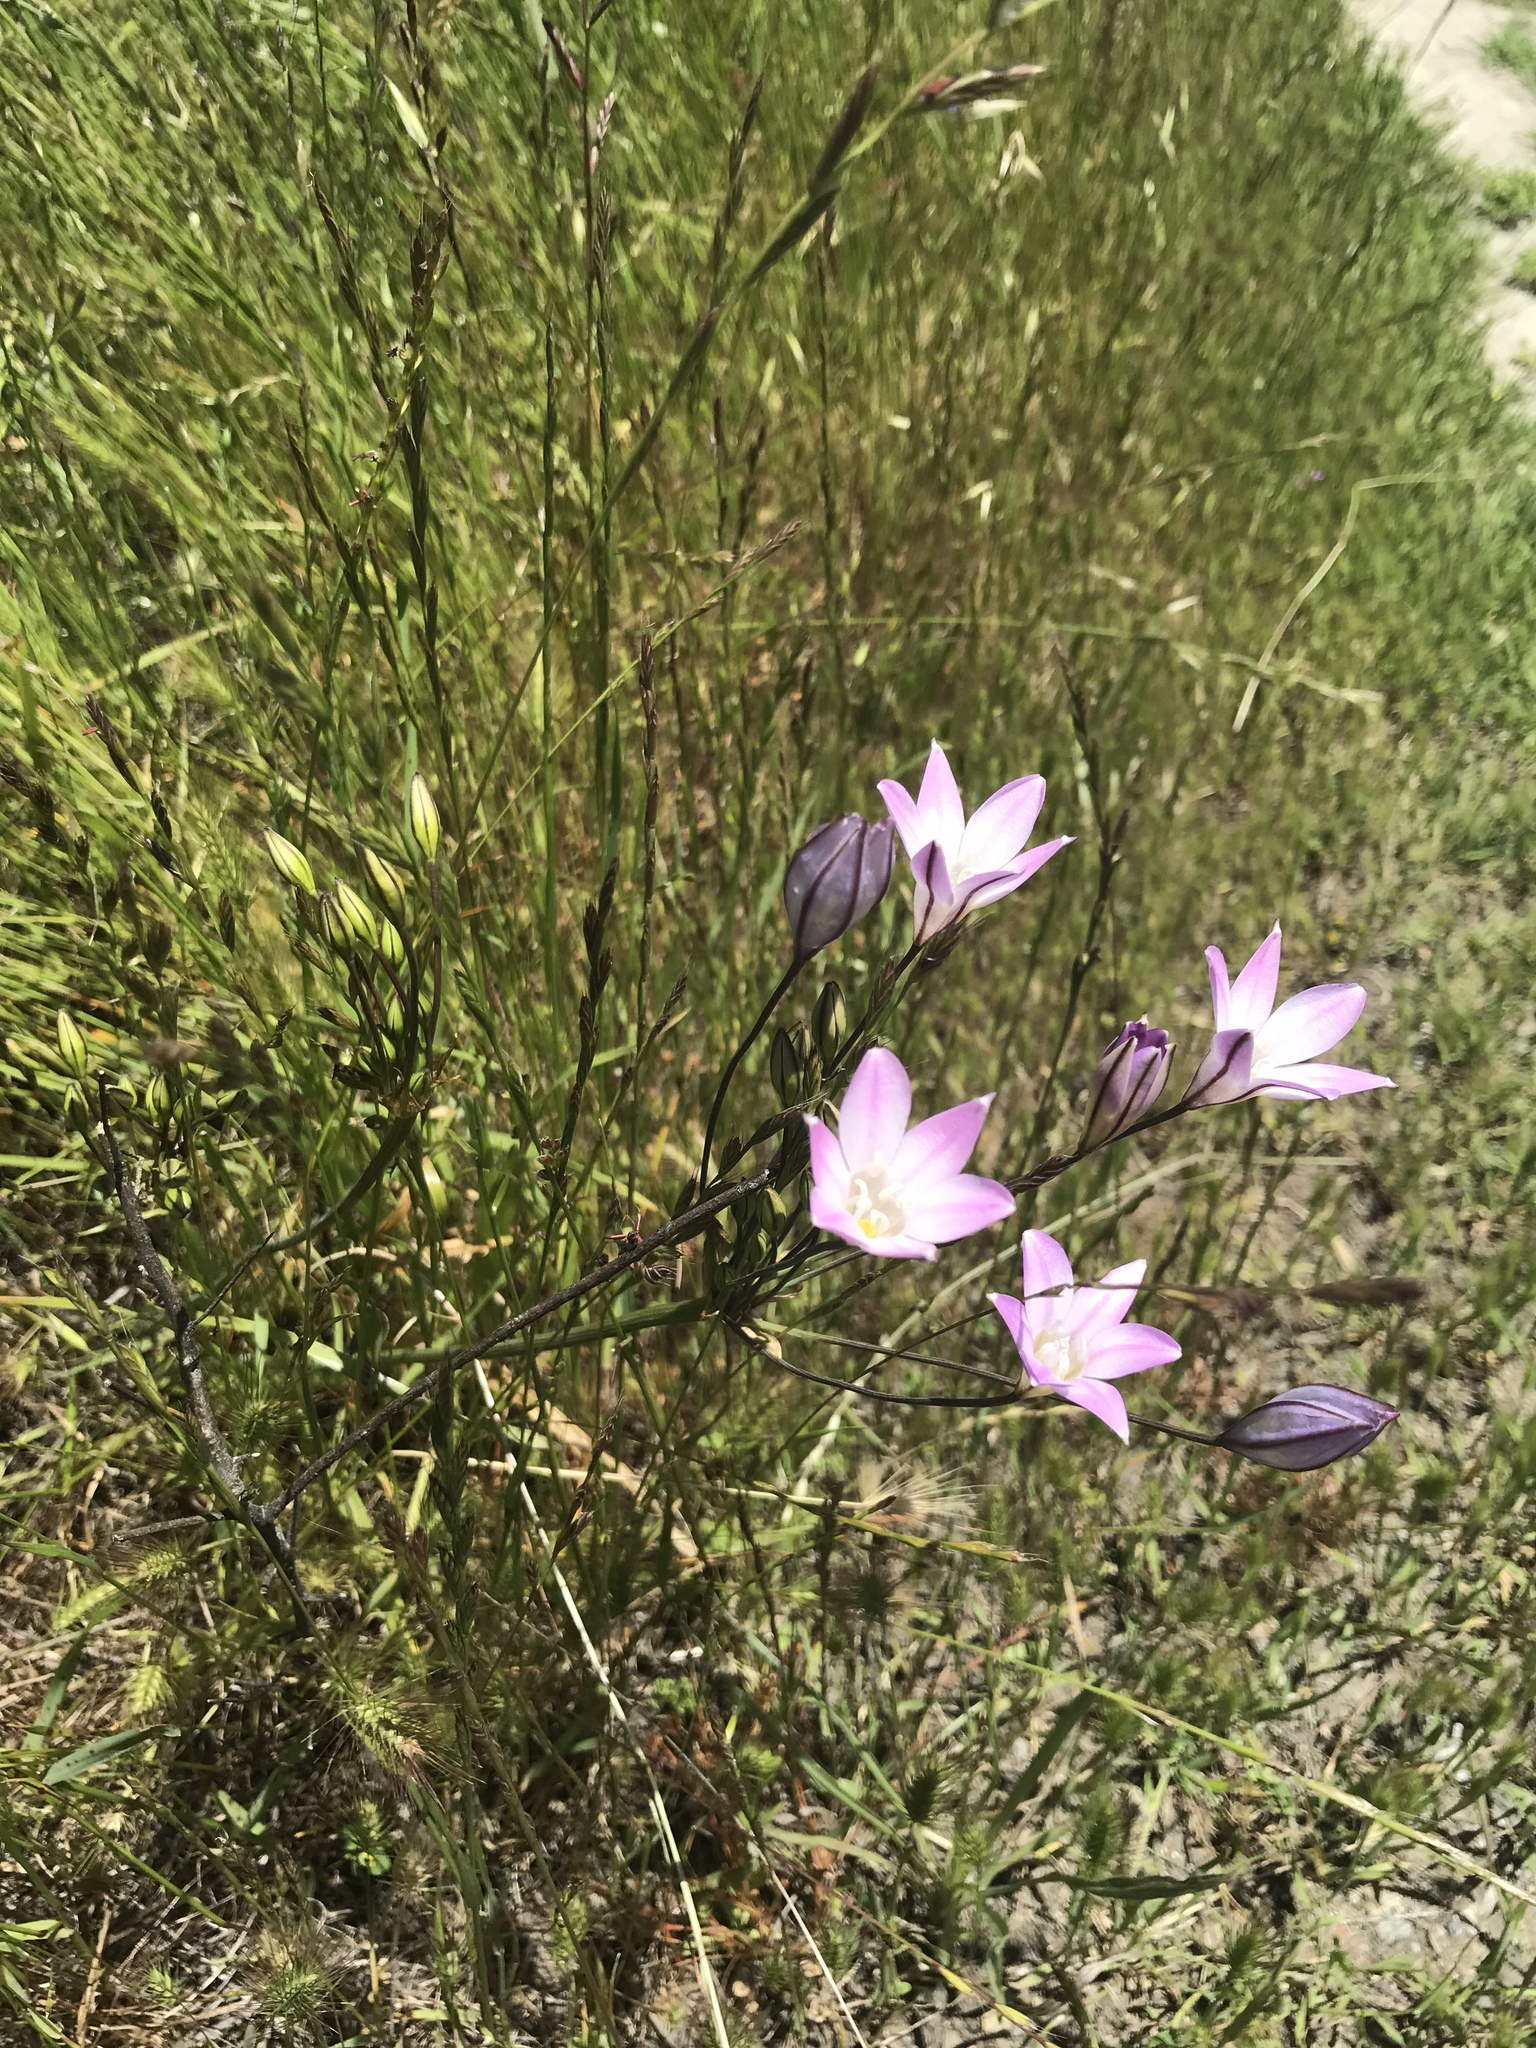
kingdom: Plantae
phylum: Tracheophyta
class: Liliopsida
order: Asparagales
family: Asparagaceae
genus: Triteleia
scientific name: Triteleia peduncularis
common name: Long-ray brodiaea
